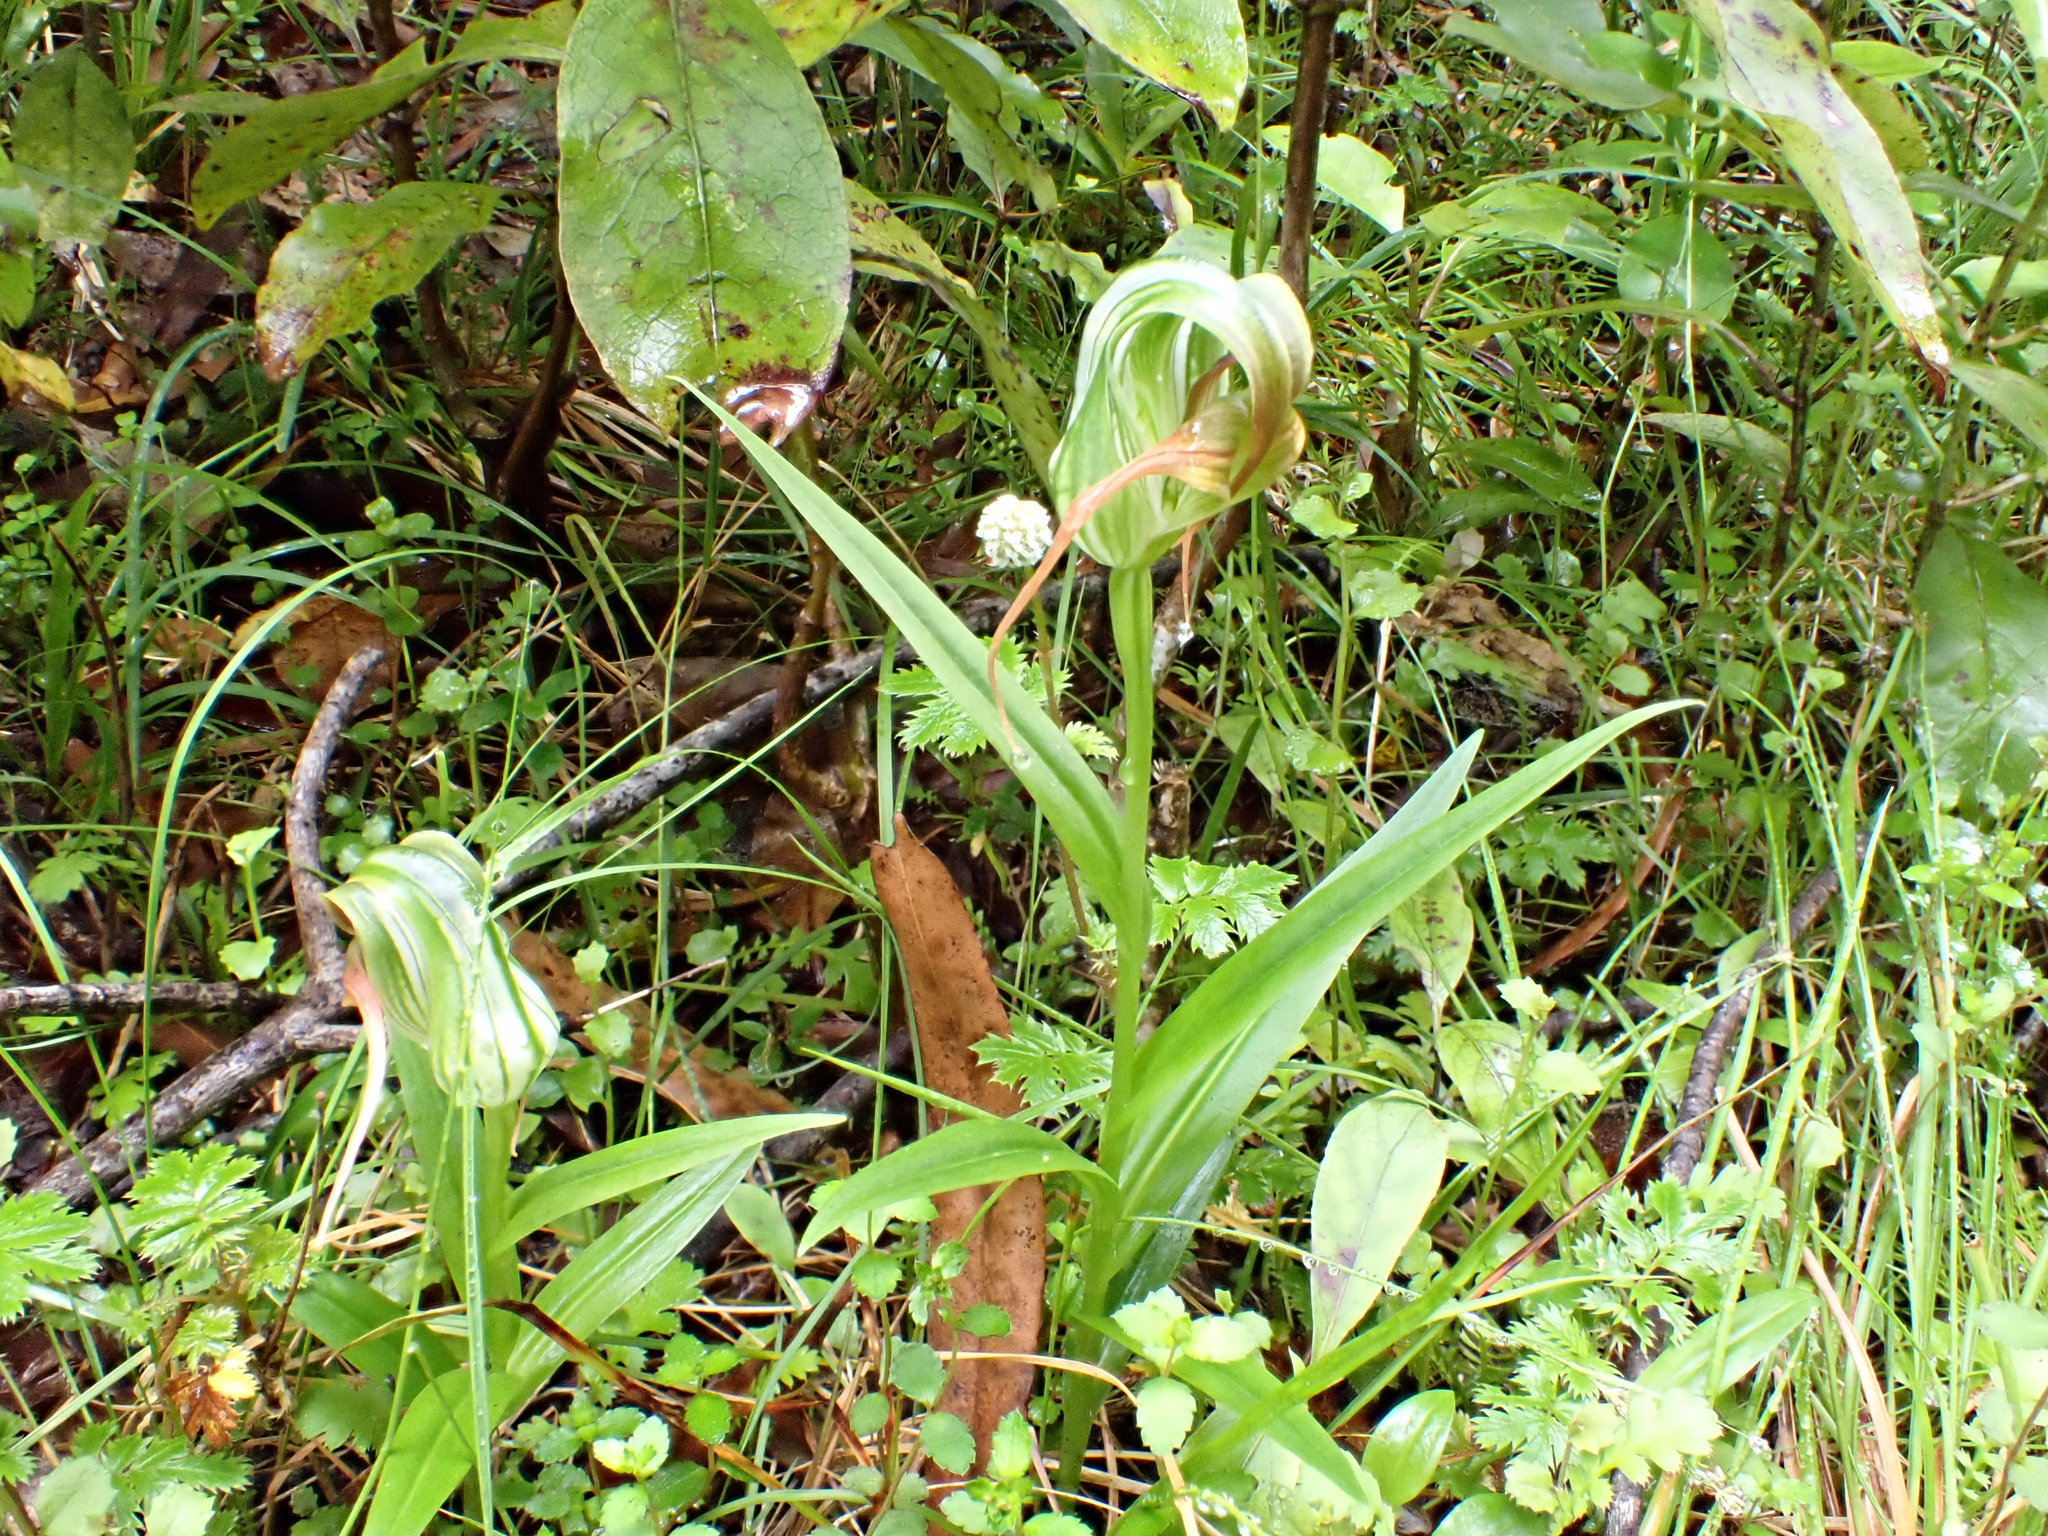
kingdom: Plantae
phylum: Tracheophyta
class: Liliopsida
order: Asparagales
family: Orchidaceae
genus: Pterostylis
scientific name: Pterostylis patens
